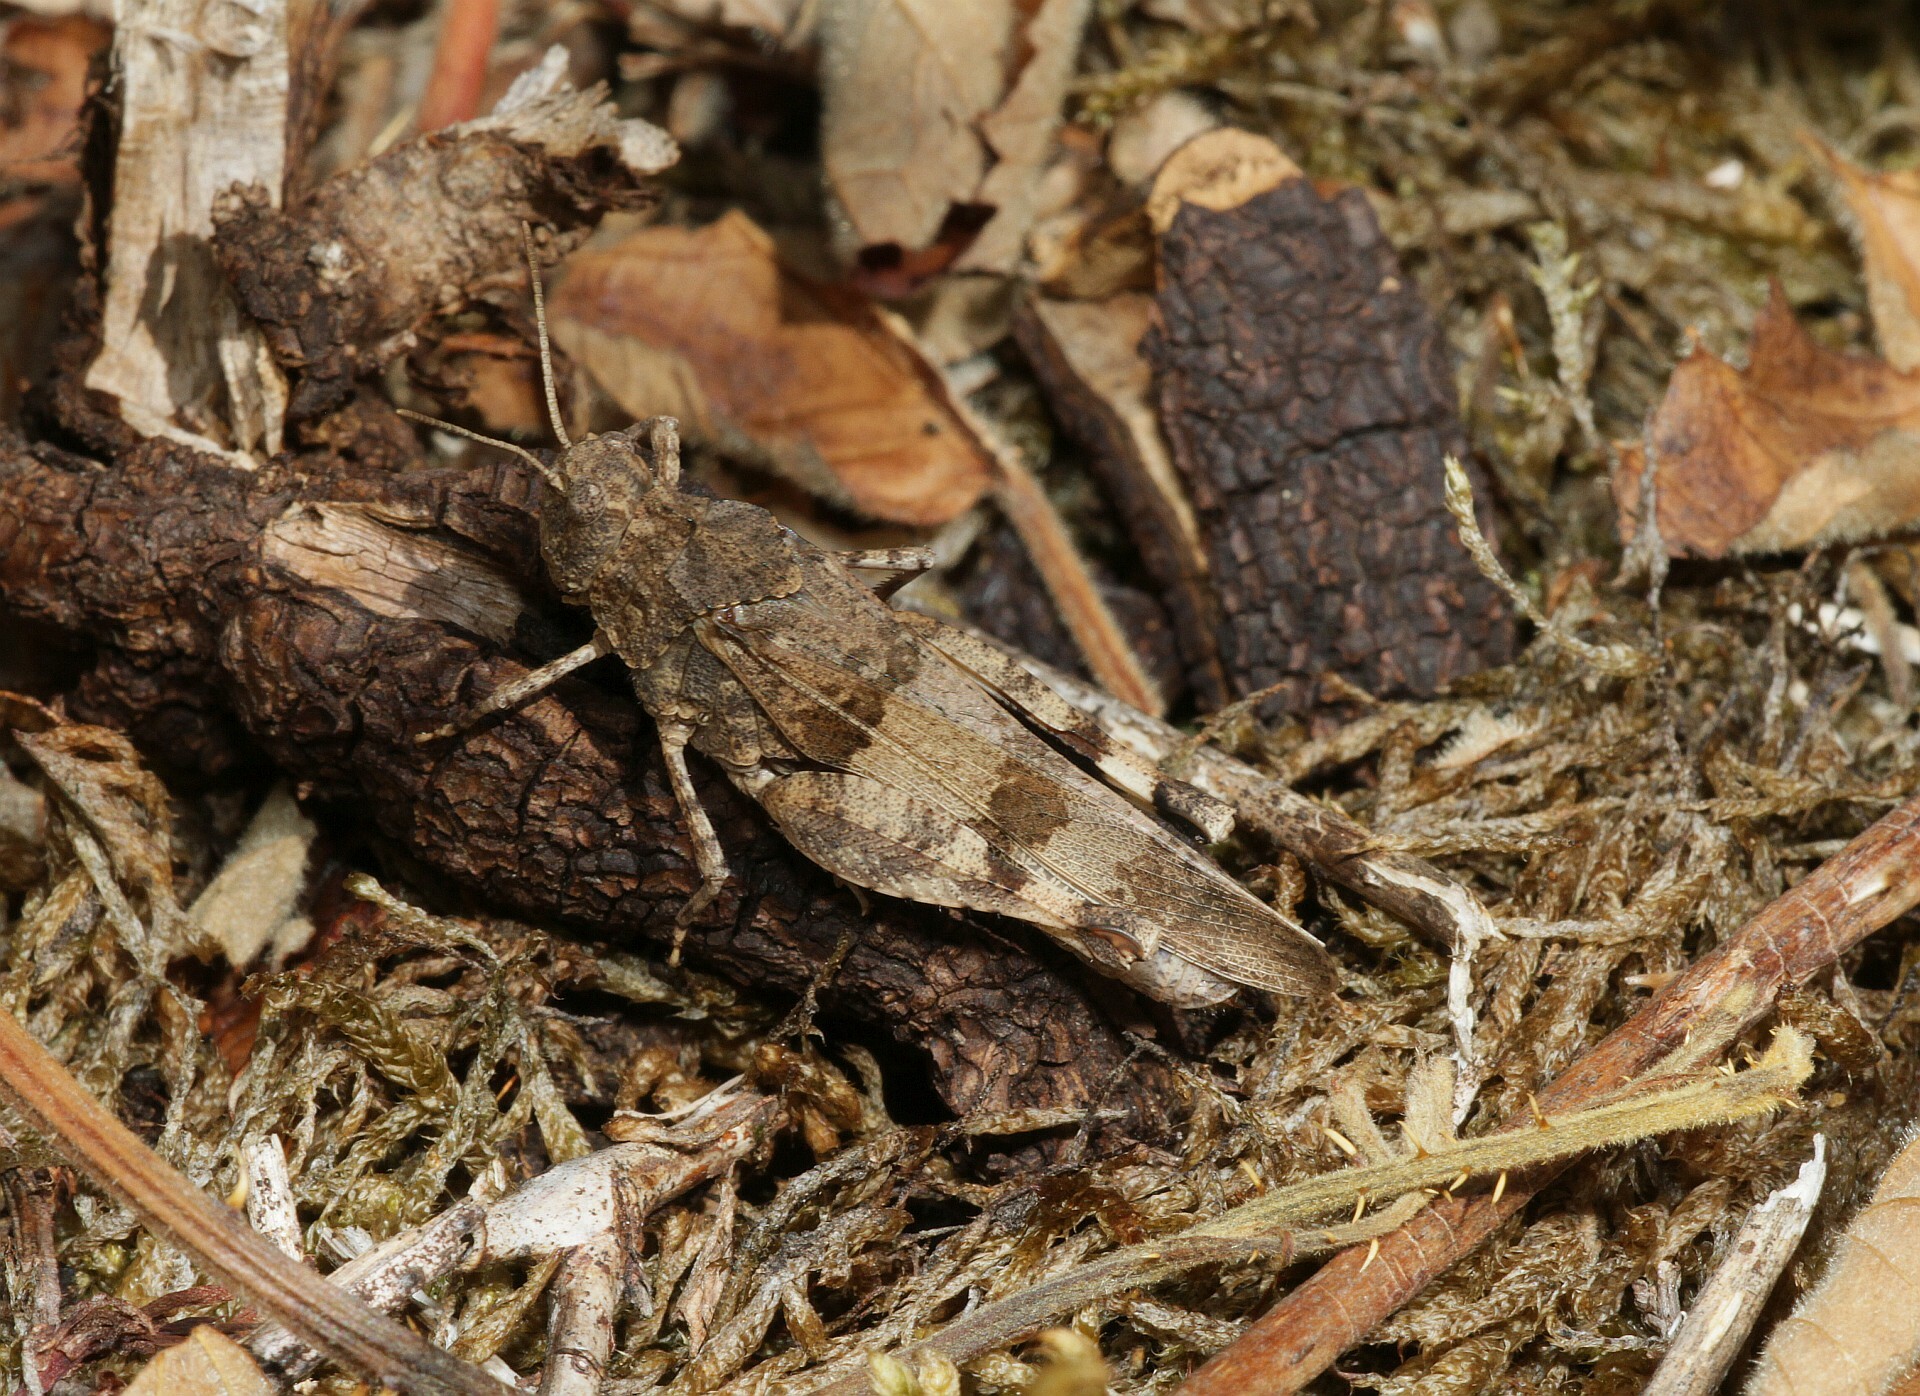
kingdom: Animalia
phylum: Arthropoda
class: Insecta
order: Orthoptera
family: Acrididae
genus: Oedipoda
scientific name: Oedipoda caerulescens
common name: Blue-winged grasshopper
